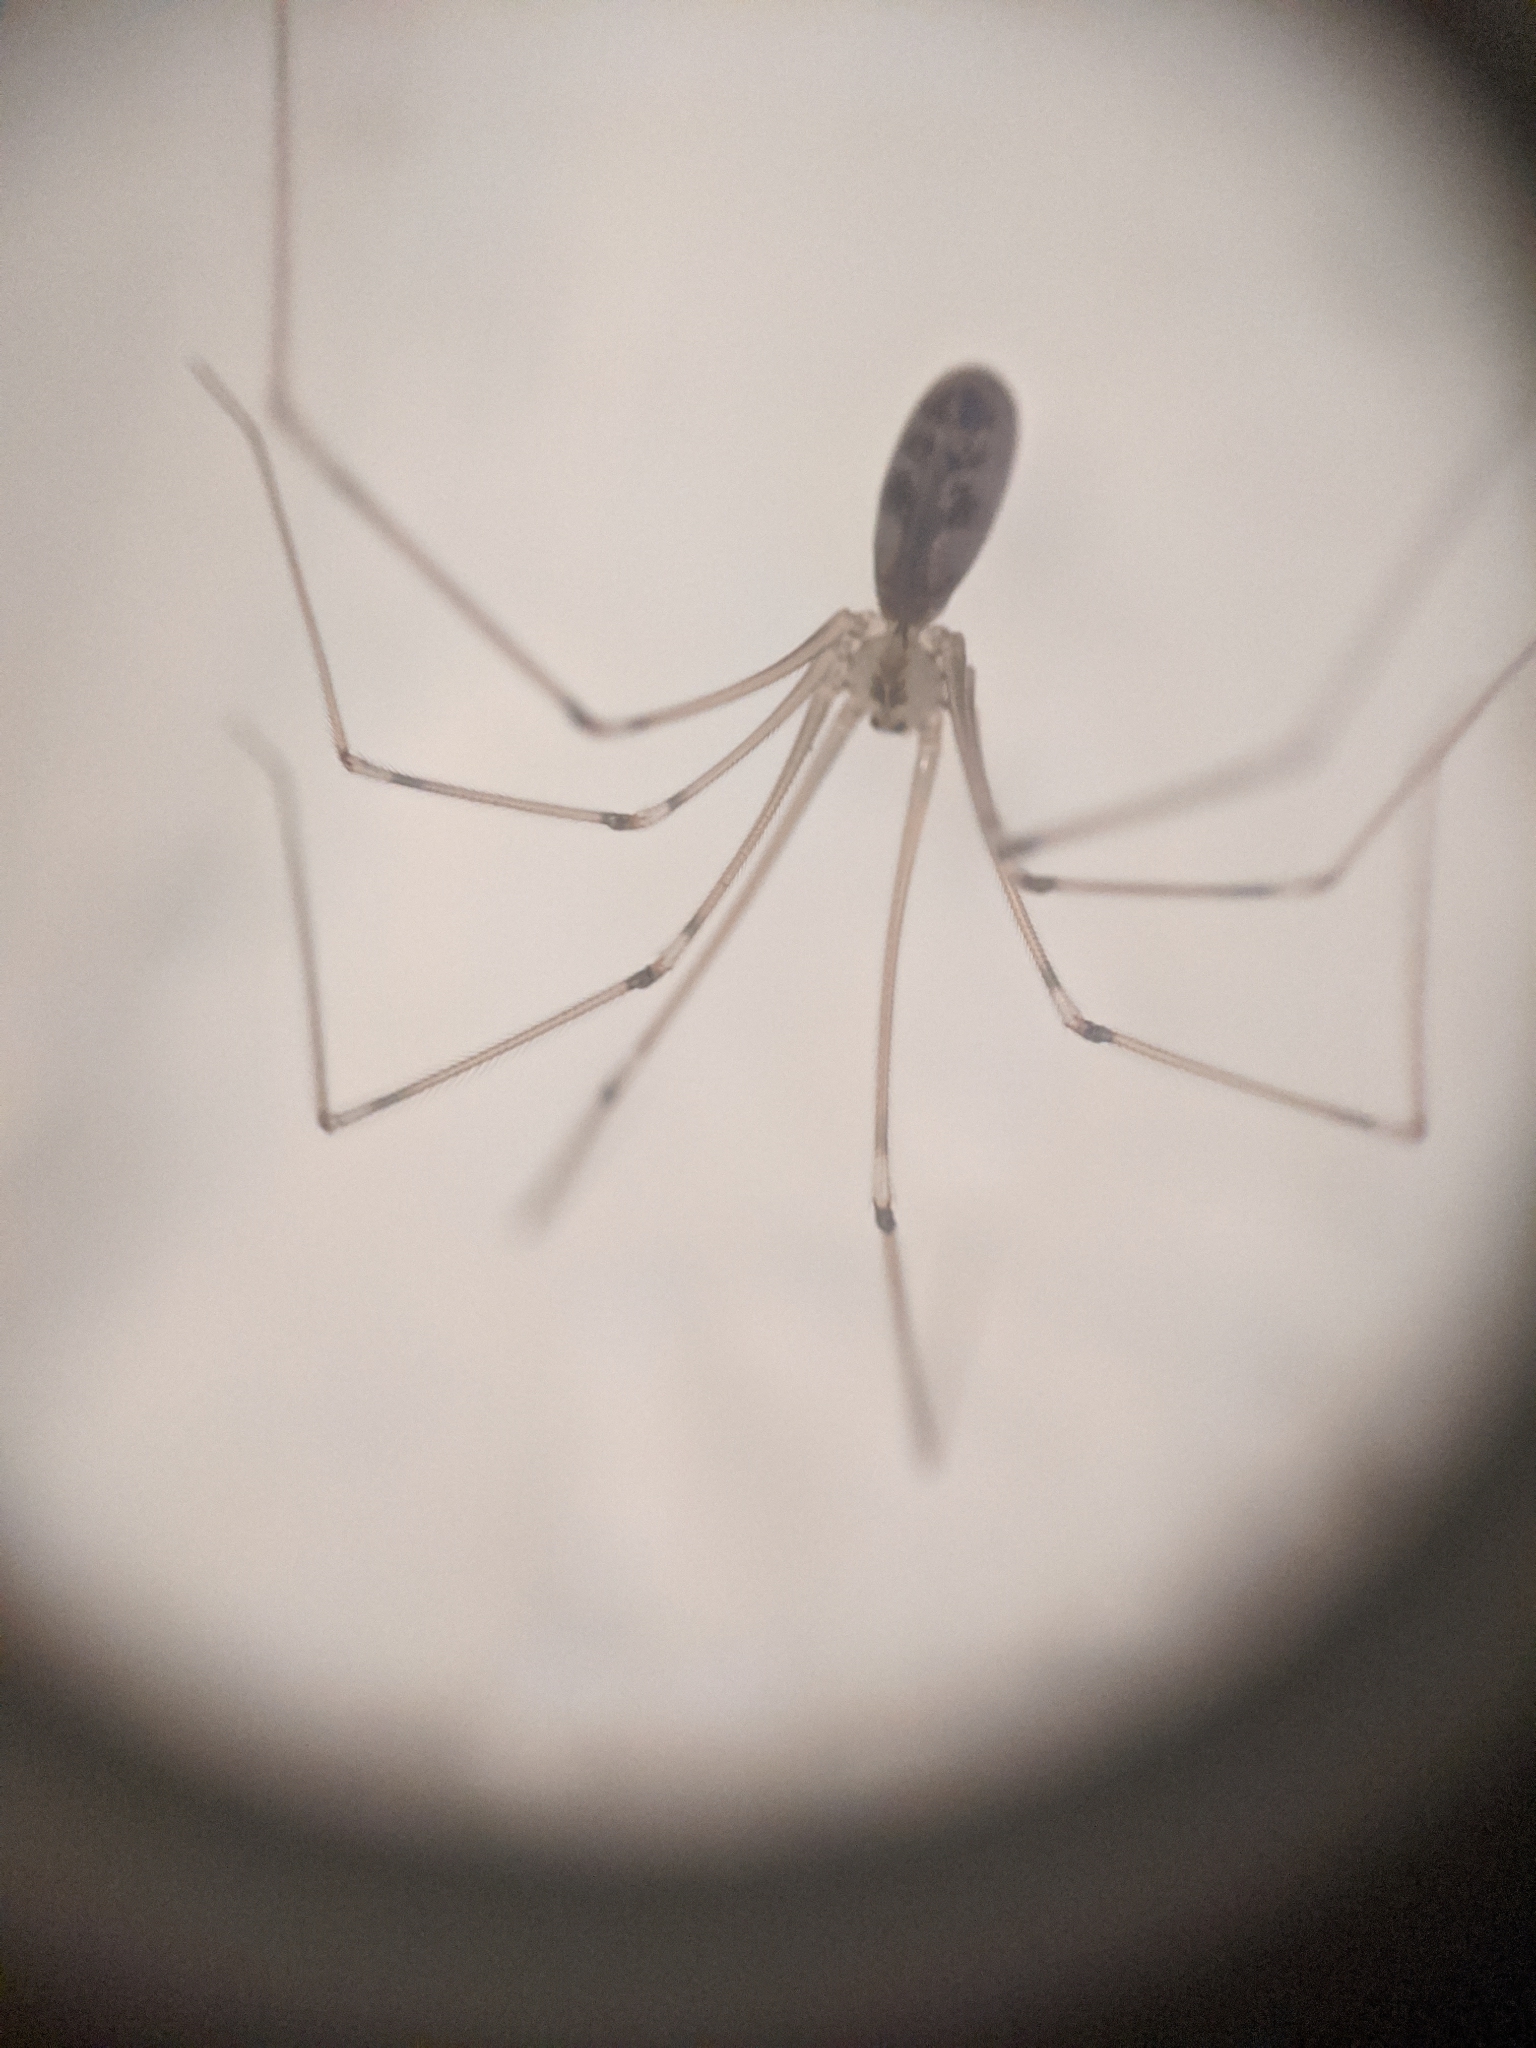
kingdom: Animalia
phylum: Arthropoda
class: Arachnida
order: Araneae
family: Pholcidae
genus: Pholcus
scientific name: Pholcus phalangioides
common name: Longbodied cellar spider
